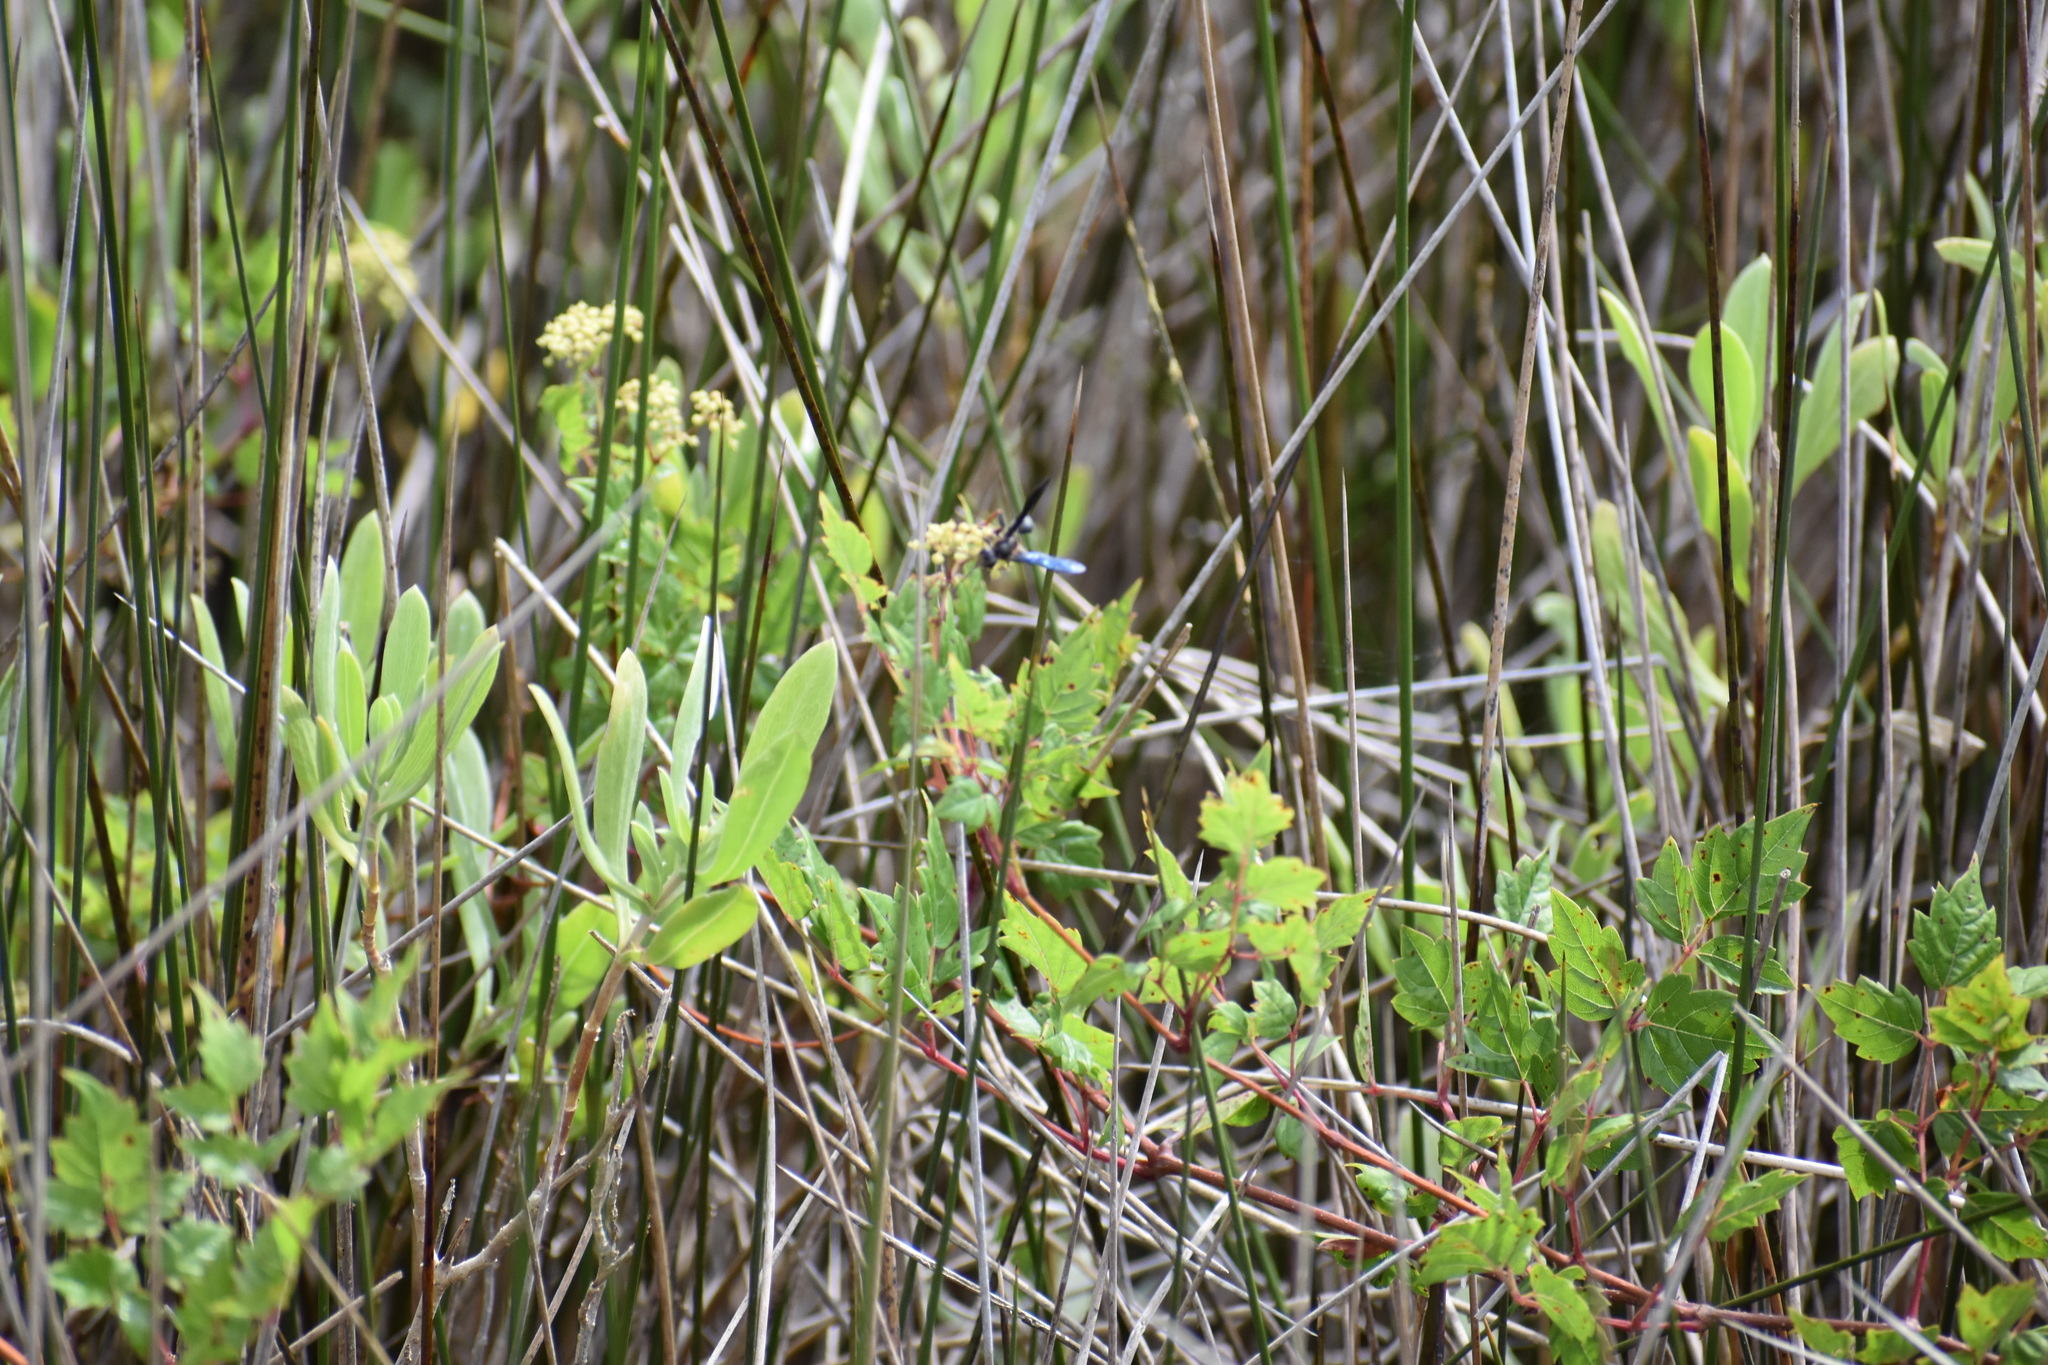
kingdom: Animalia
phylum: Arthropoda
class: Insecta
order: Hymenoptera
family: Sphecidae
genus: Isodontia
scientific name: Isodontia auripes
